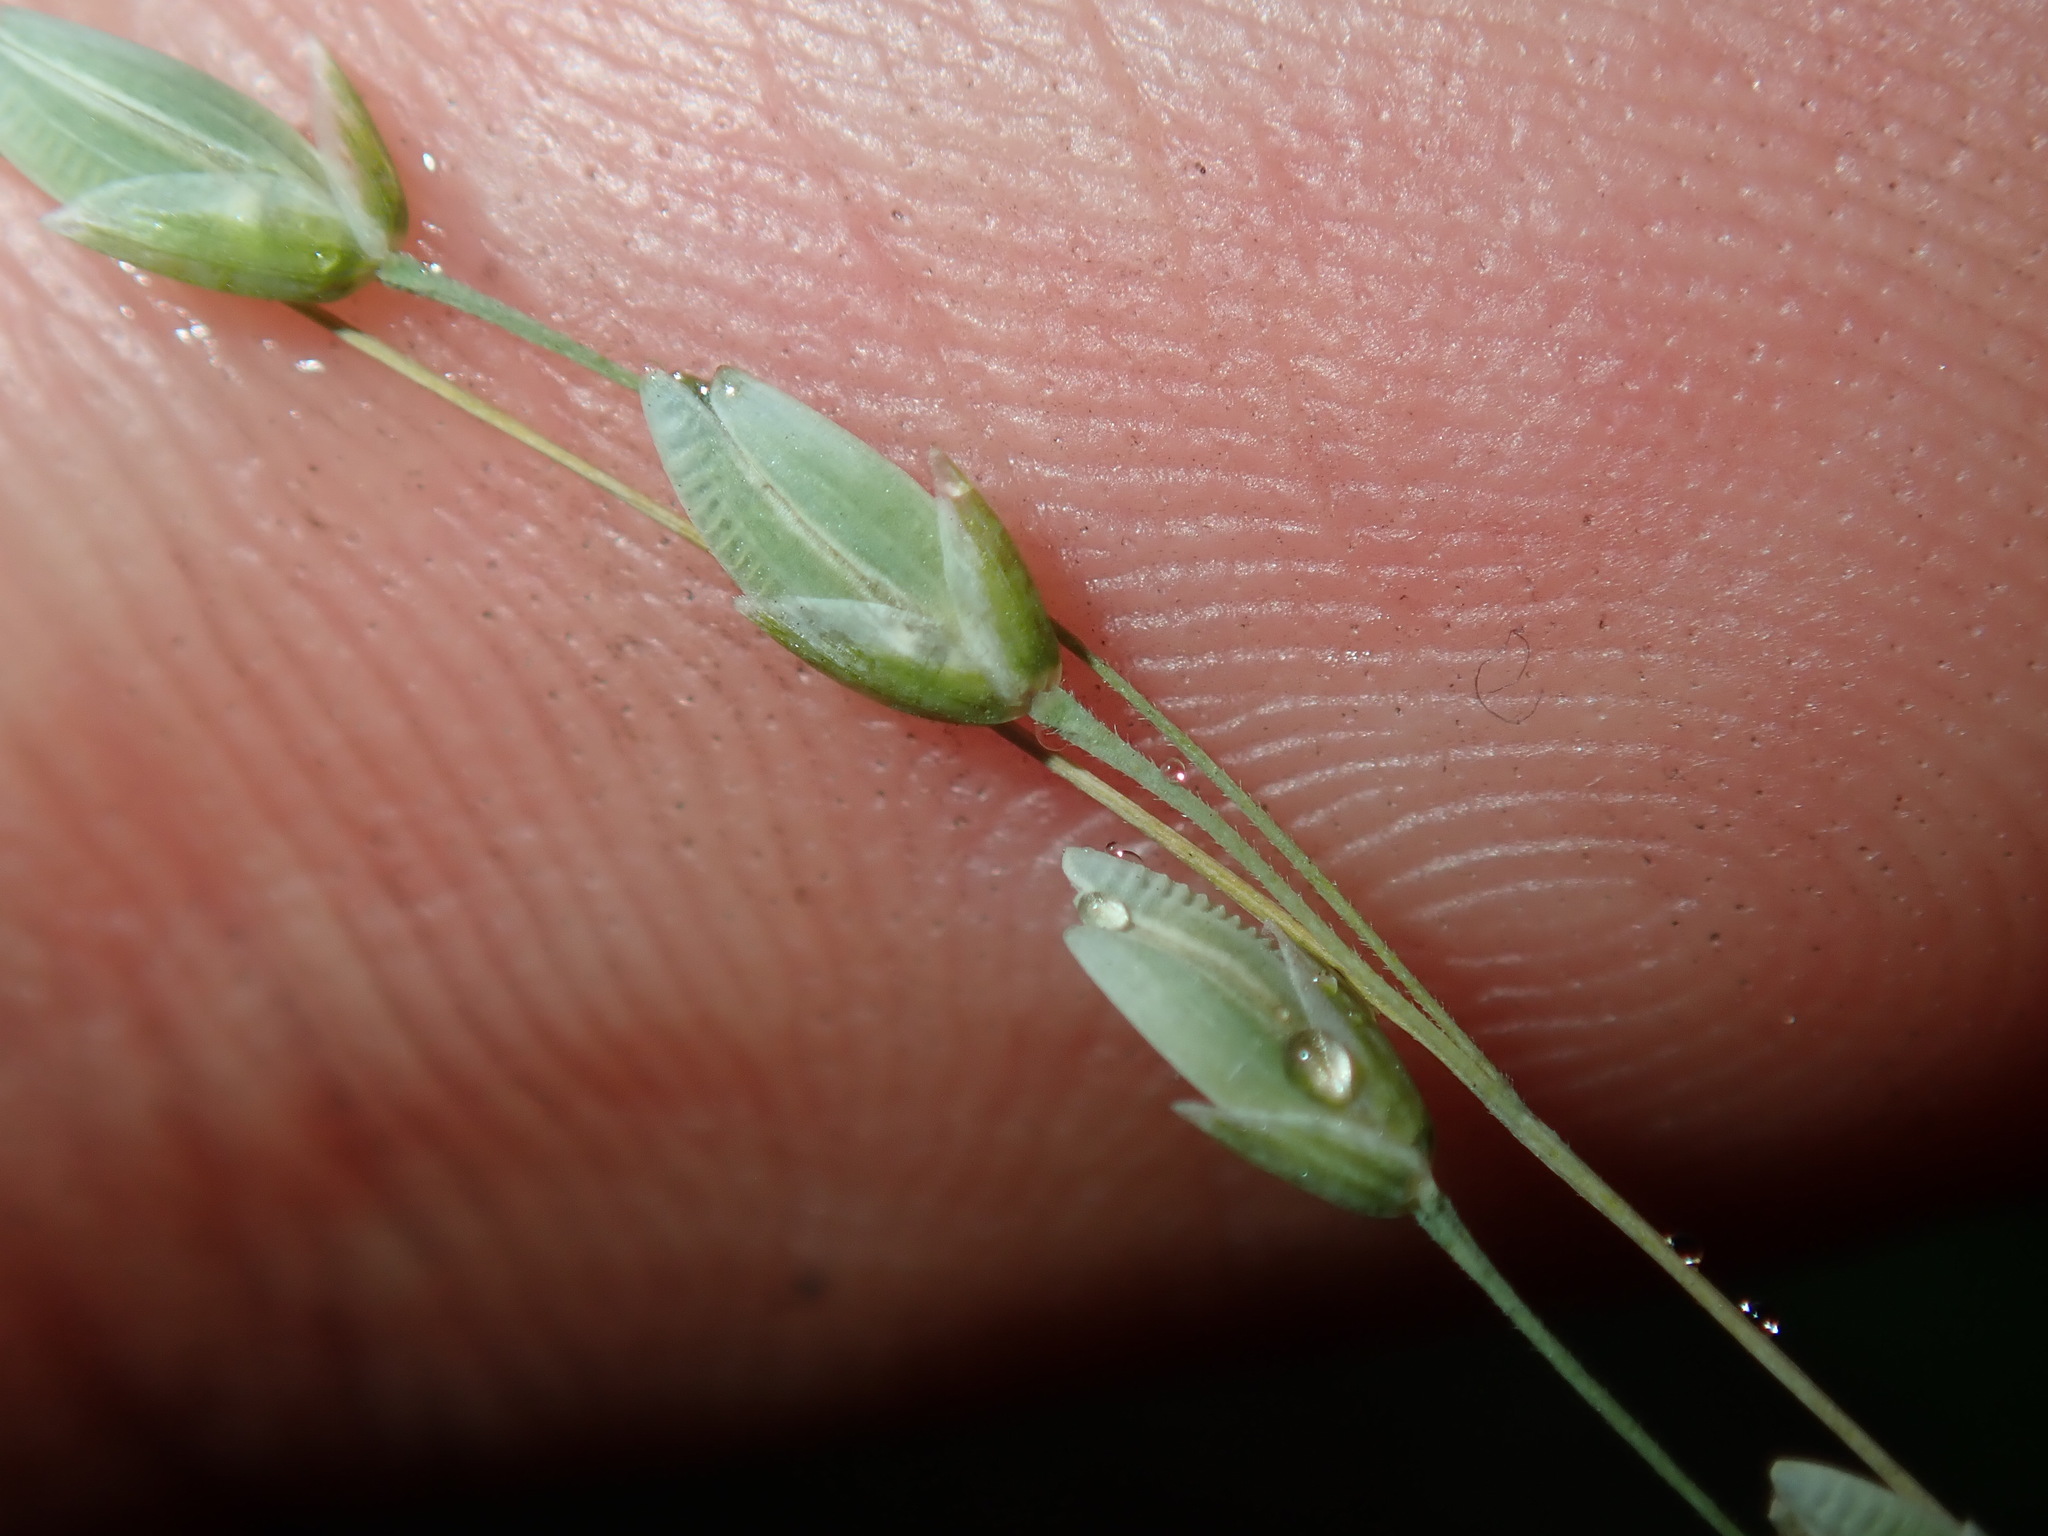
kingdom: Plantae
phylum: Tracheophyta
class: Liliopsida
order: Poales
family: Poaceae
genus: Ehrharta
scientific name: Ehrharta erecta
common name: Panic veldtgrass
